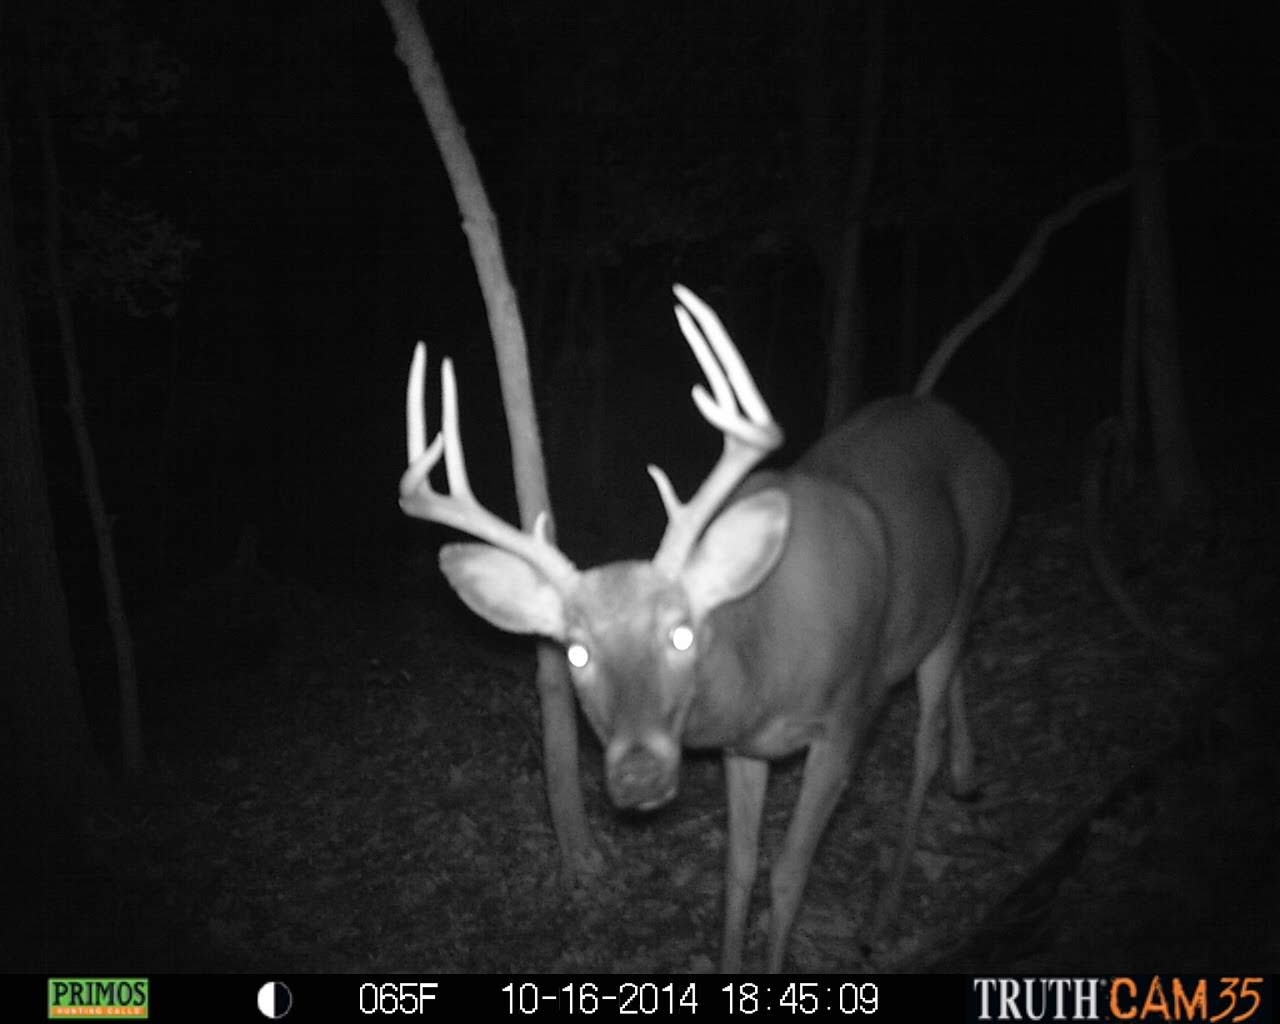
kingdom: Animalia
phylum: Chordata
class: Mammalia
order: Artiodactyla
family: Cervidae
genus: Odocoileus
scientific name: Odocoileus virginianus
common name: White-tailed deer
